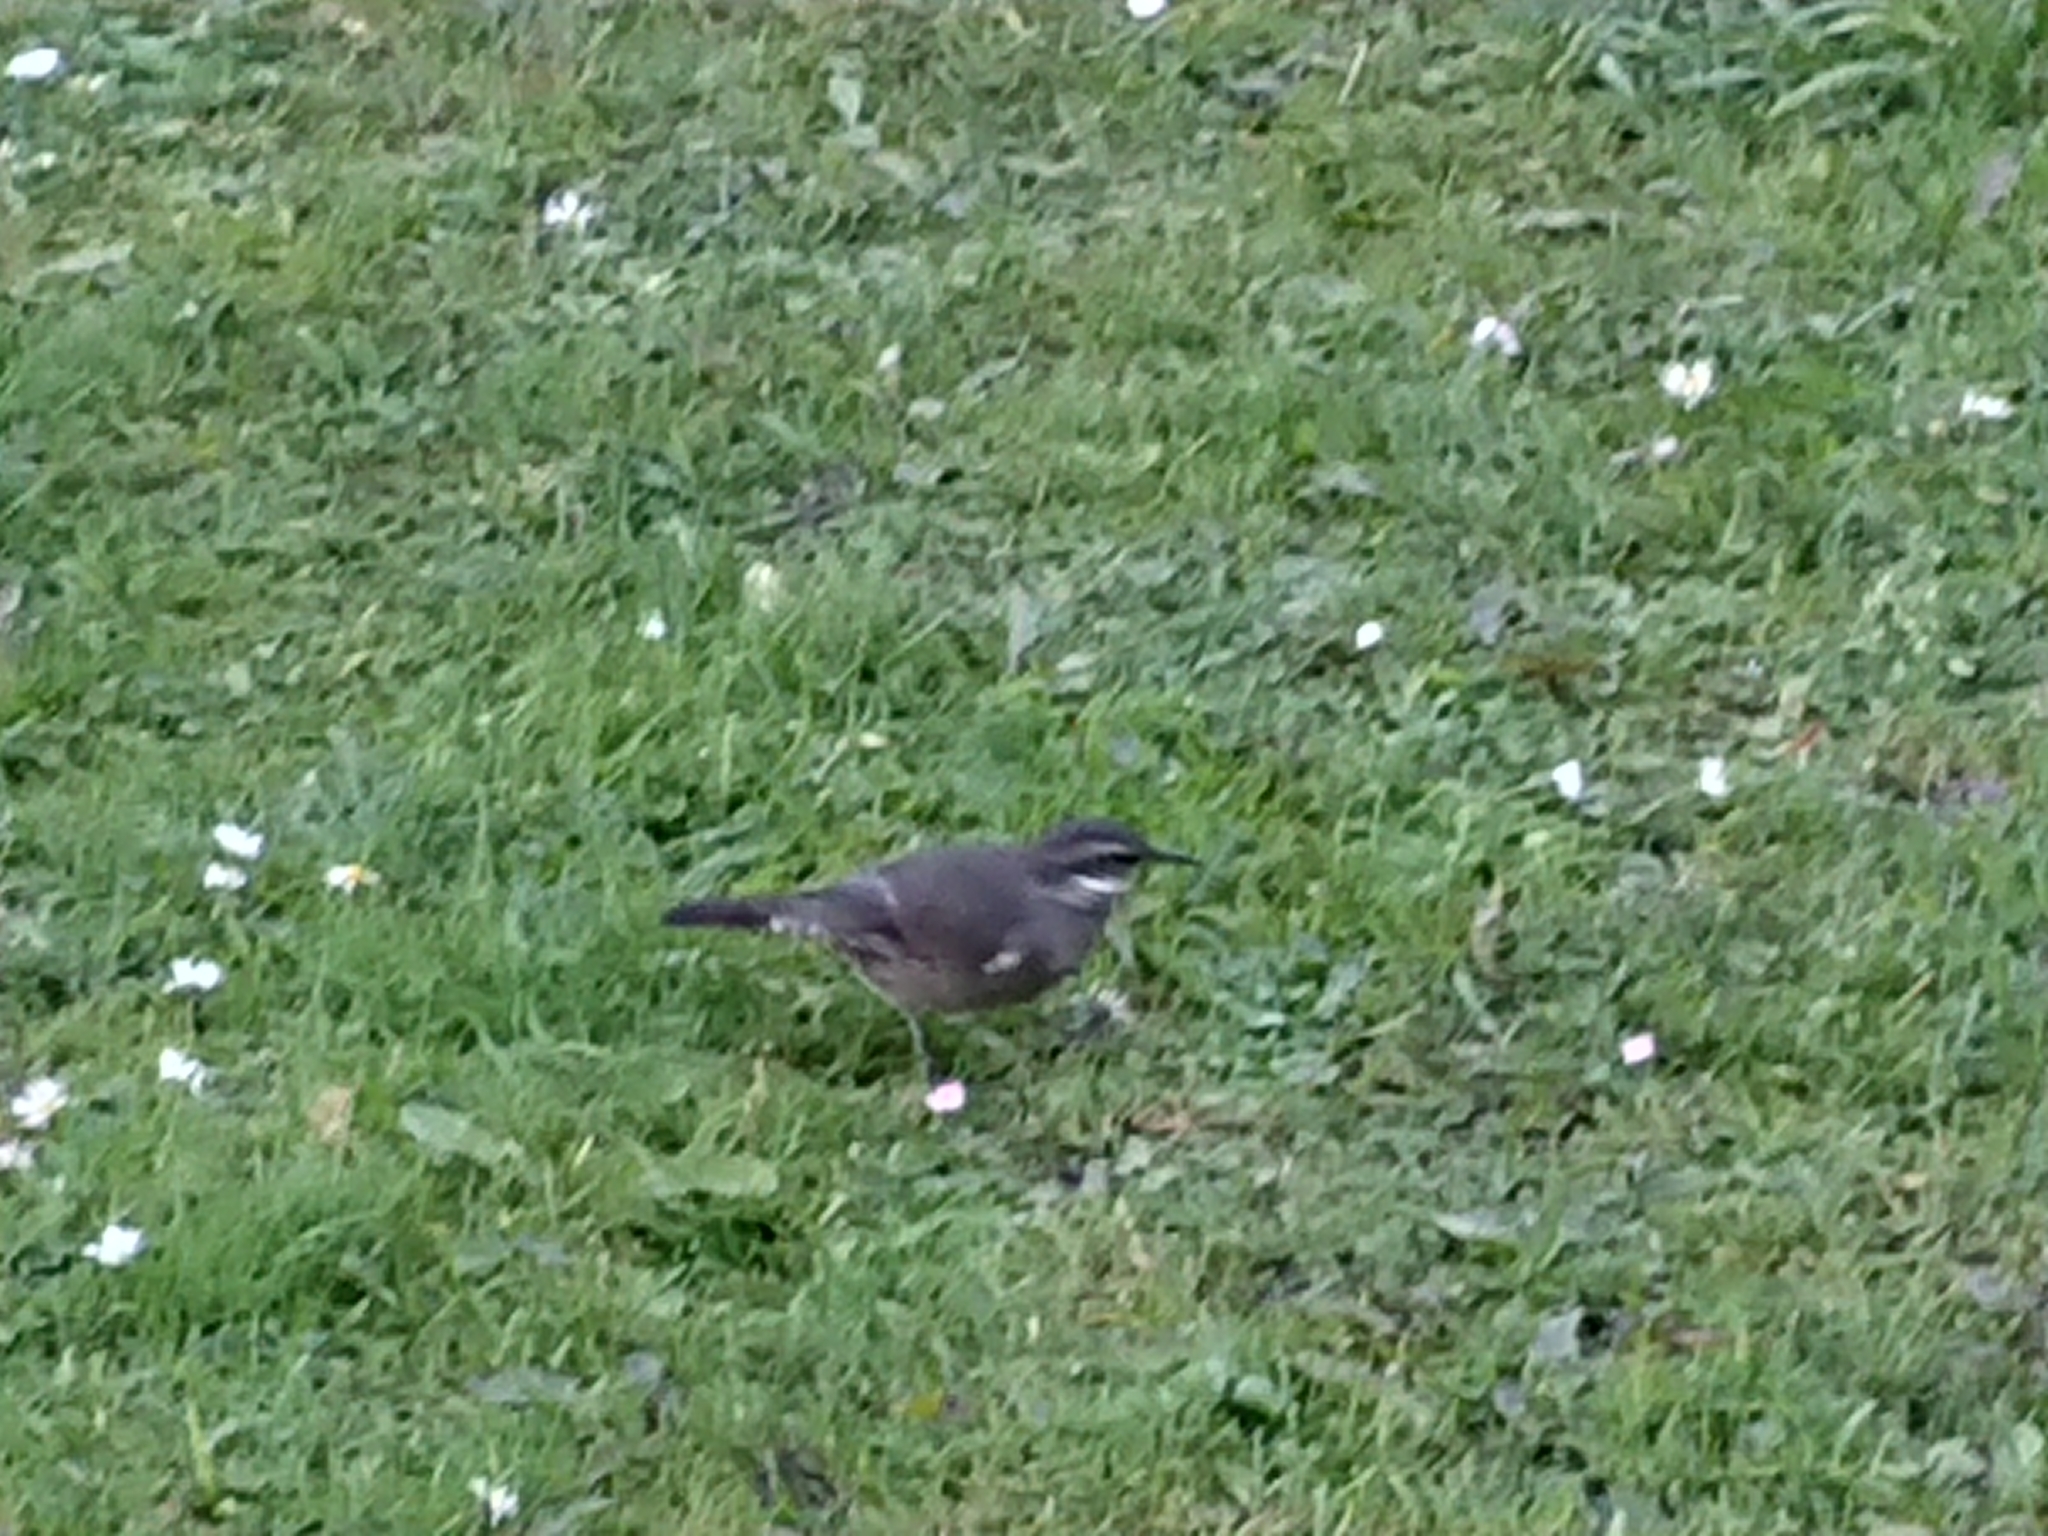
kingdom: Animalia
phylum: Chordata
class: Aves
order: Passeriformes
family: Furnariidae
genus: Cinclodes
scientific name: Cinclodes patagonicus
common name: Dark-bellied cinclodes
